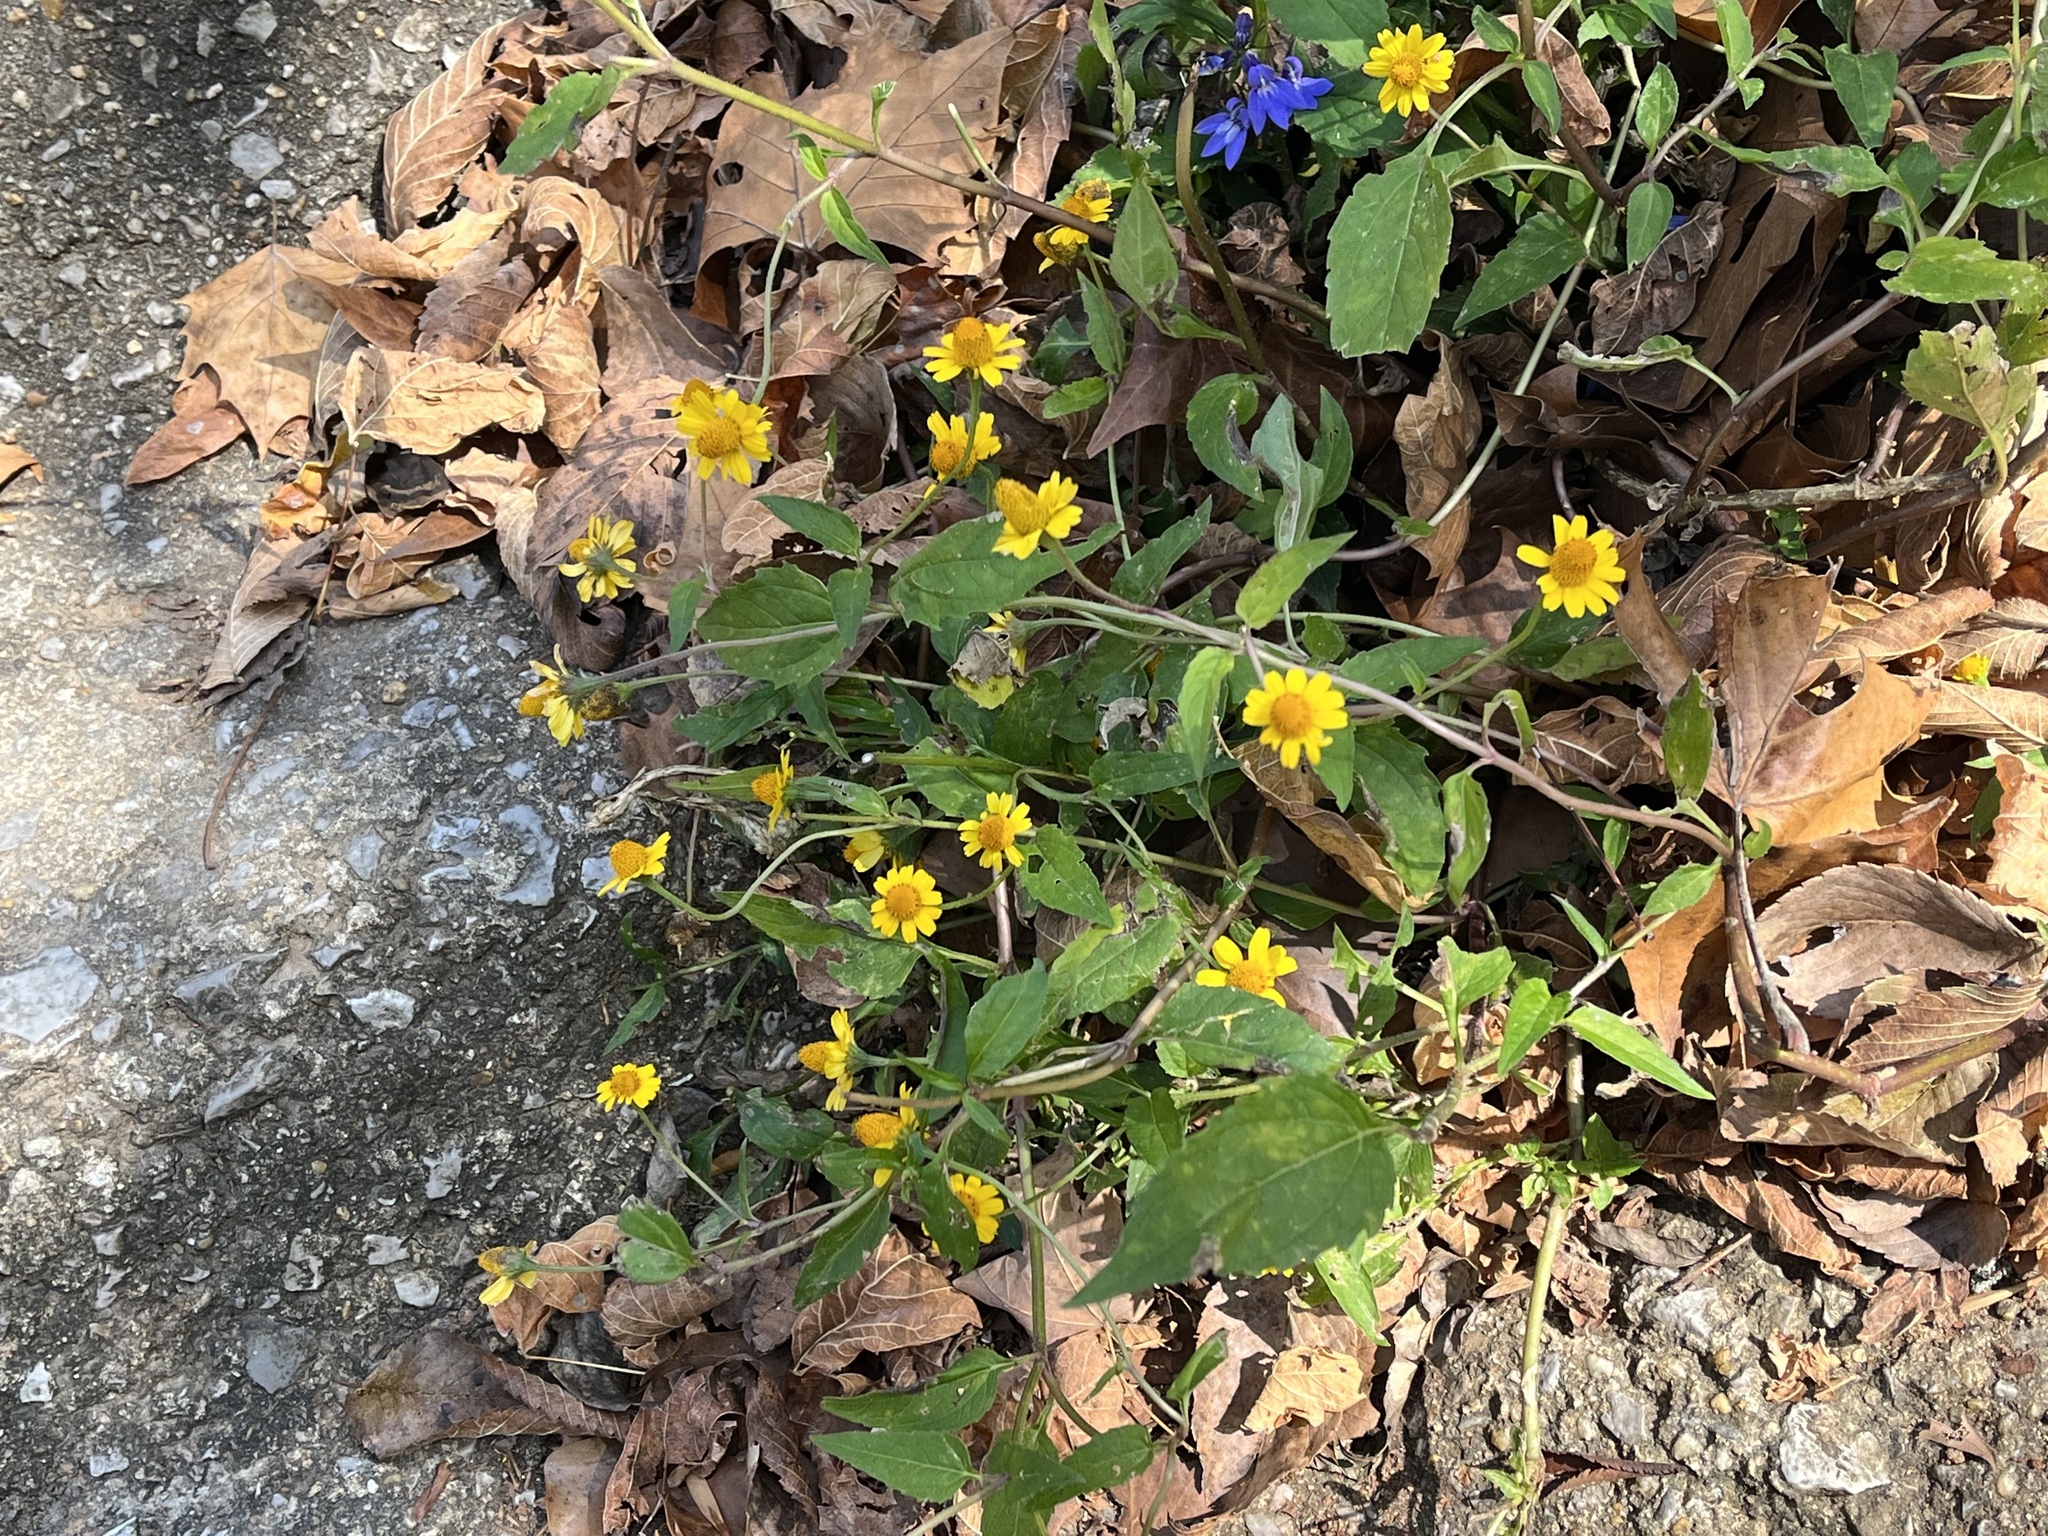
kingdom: Plantae
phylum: Tracheophyta
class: Magnoliopsida
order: Asterales
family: Asteraceae
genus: Acmella
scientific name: Acmella repens
